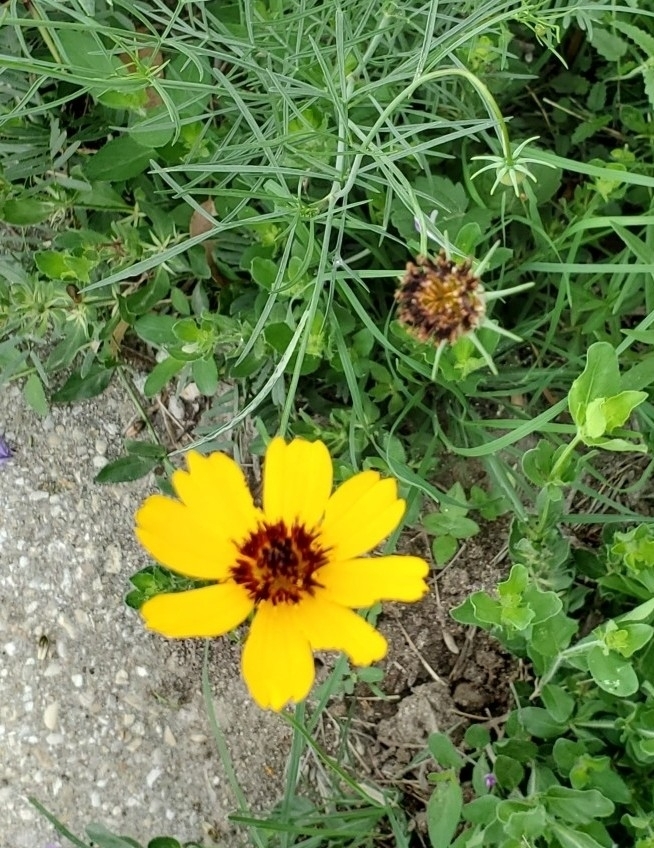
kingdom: Plantae
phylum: Tracheophyta
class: Magnoliopsida
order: Asterales
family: Asteraceae
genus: Thelesperma
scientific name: Thelesperma filifolium
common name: Stiff greenthread
